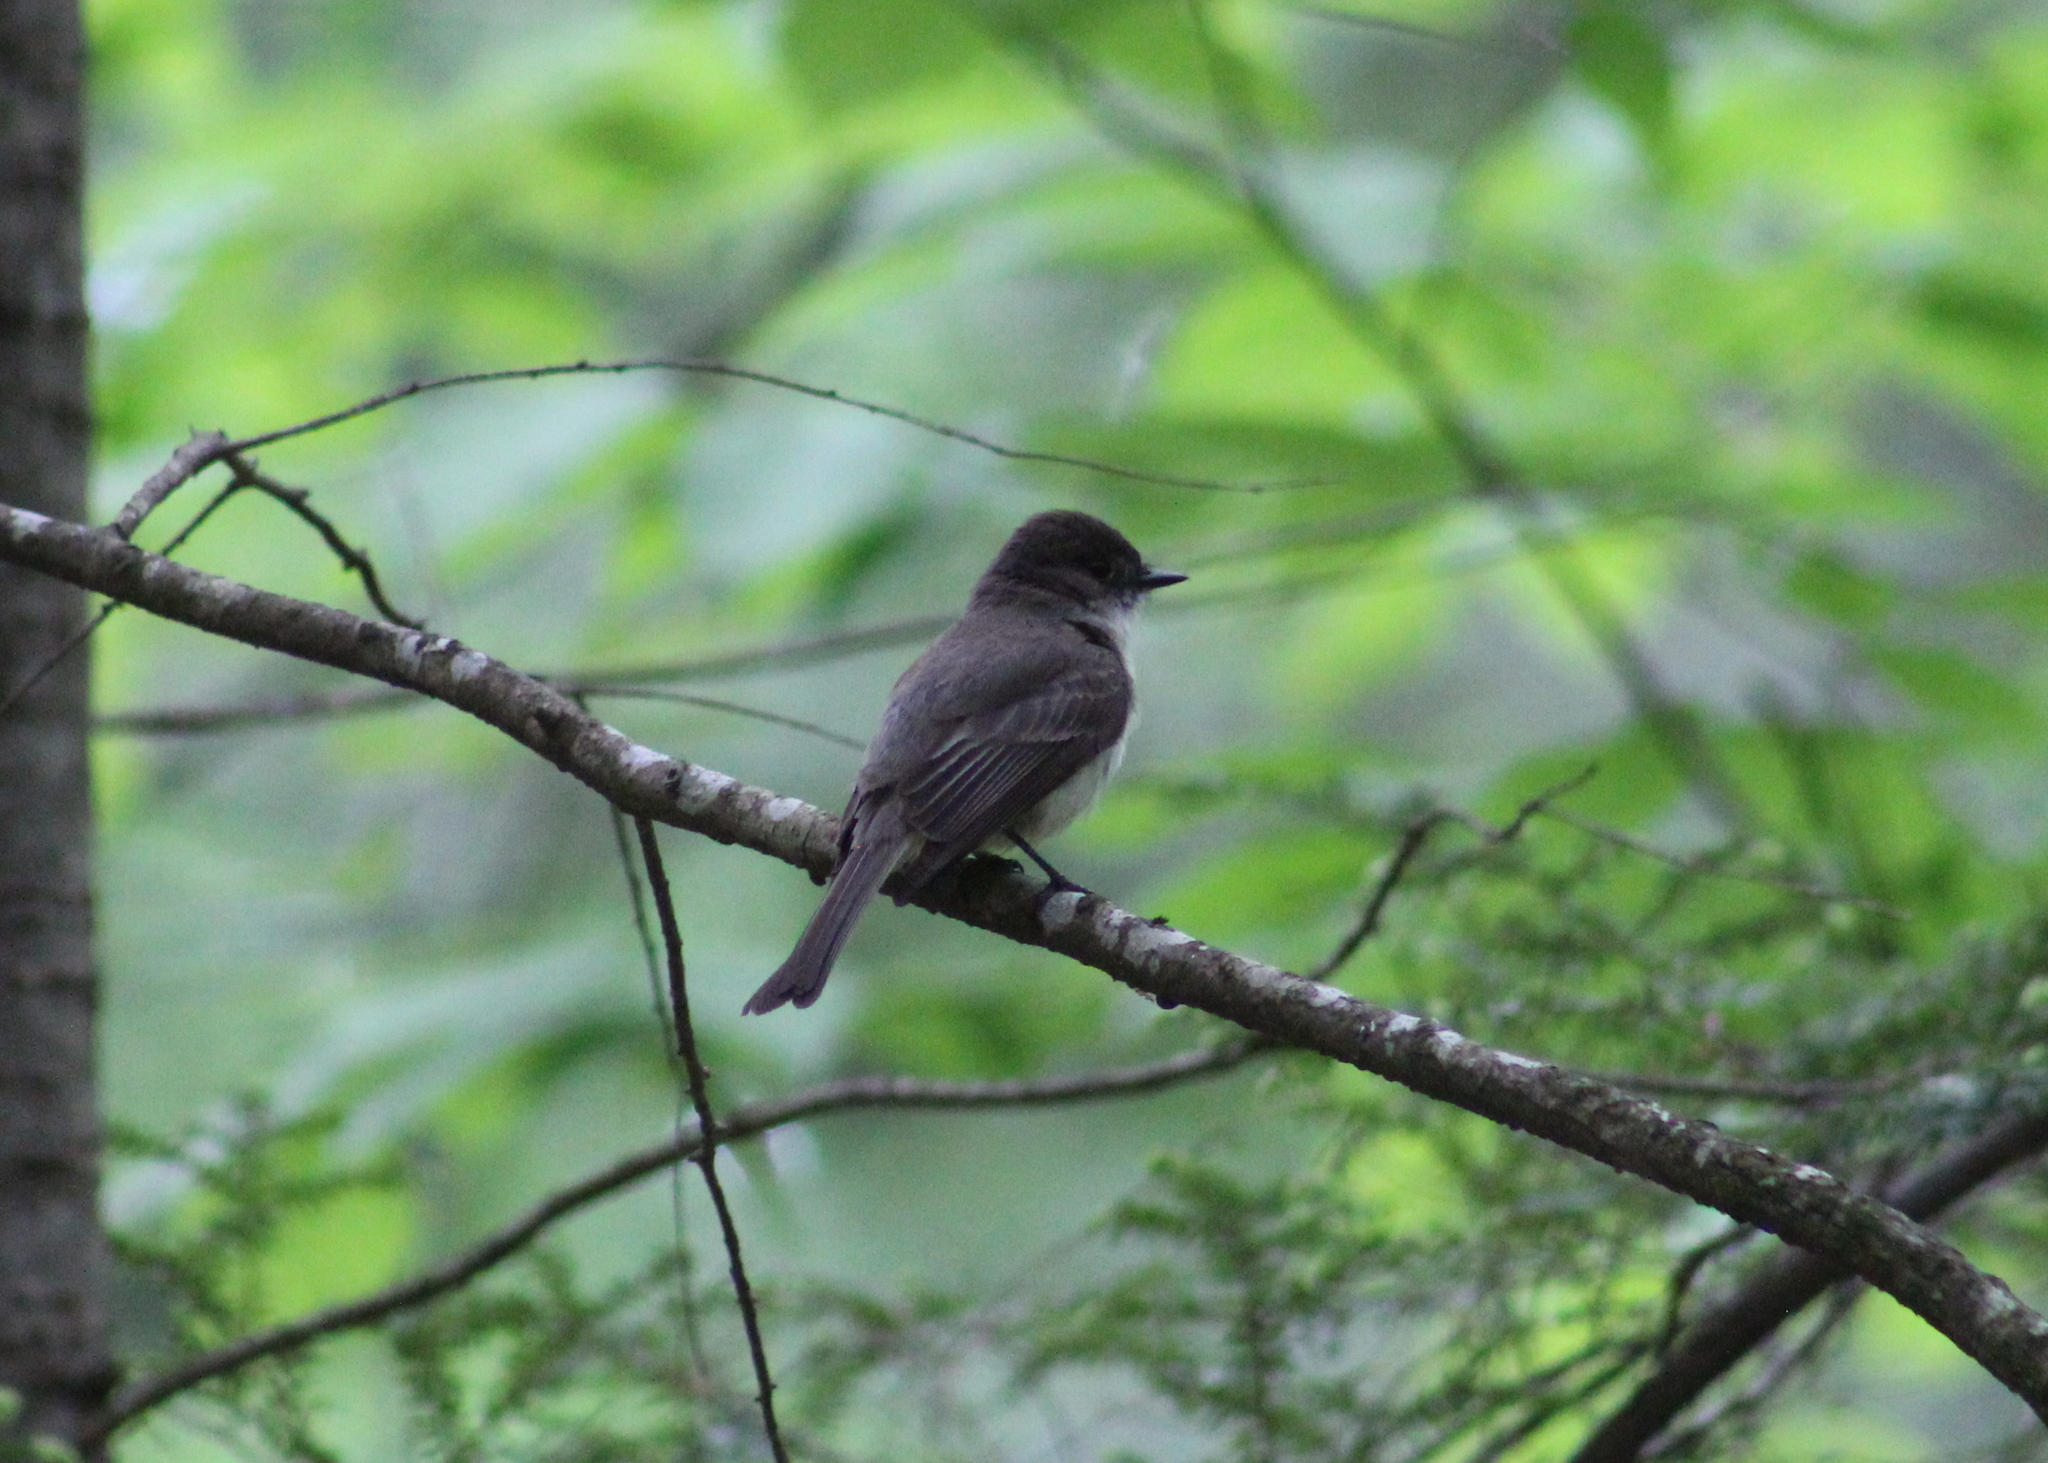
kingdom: Animalia
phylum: Chordata
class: Aves
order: Passeriformes
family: Tyrannidae
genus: Sayornis
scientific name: Sayornis phoebe
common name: Eastern phoebe
